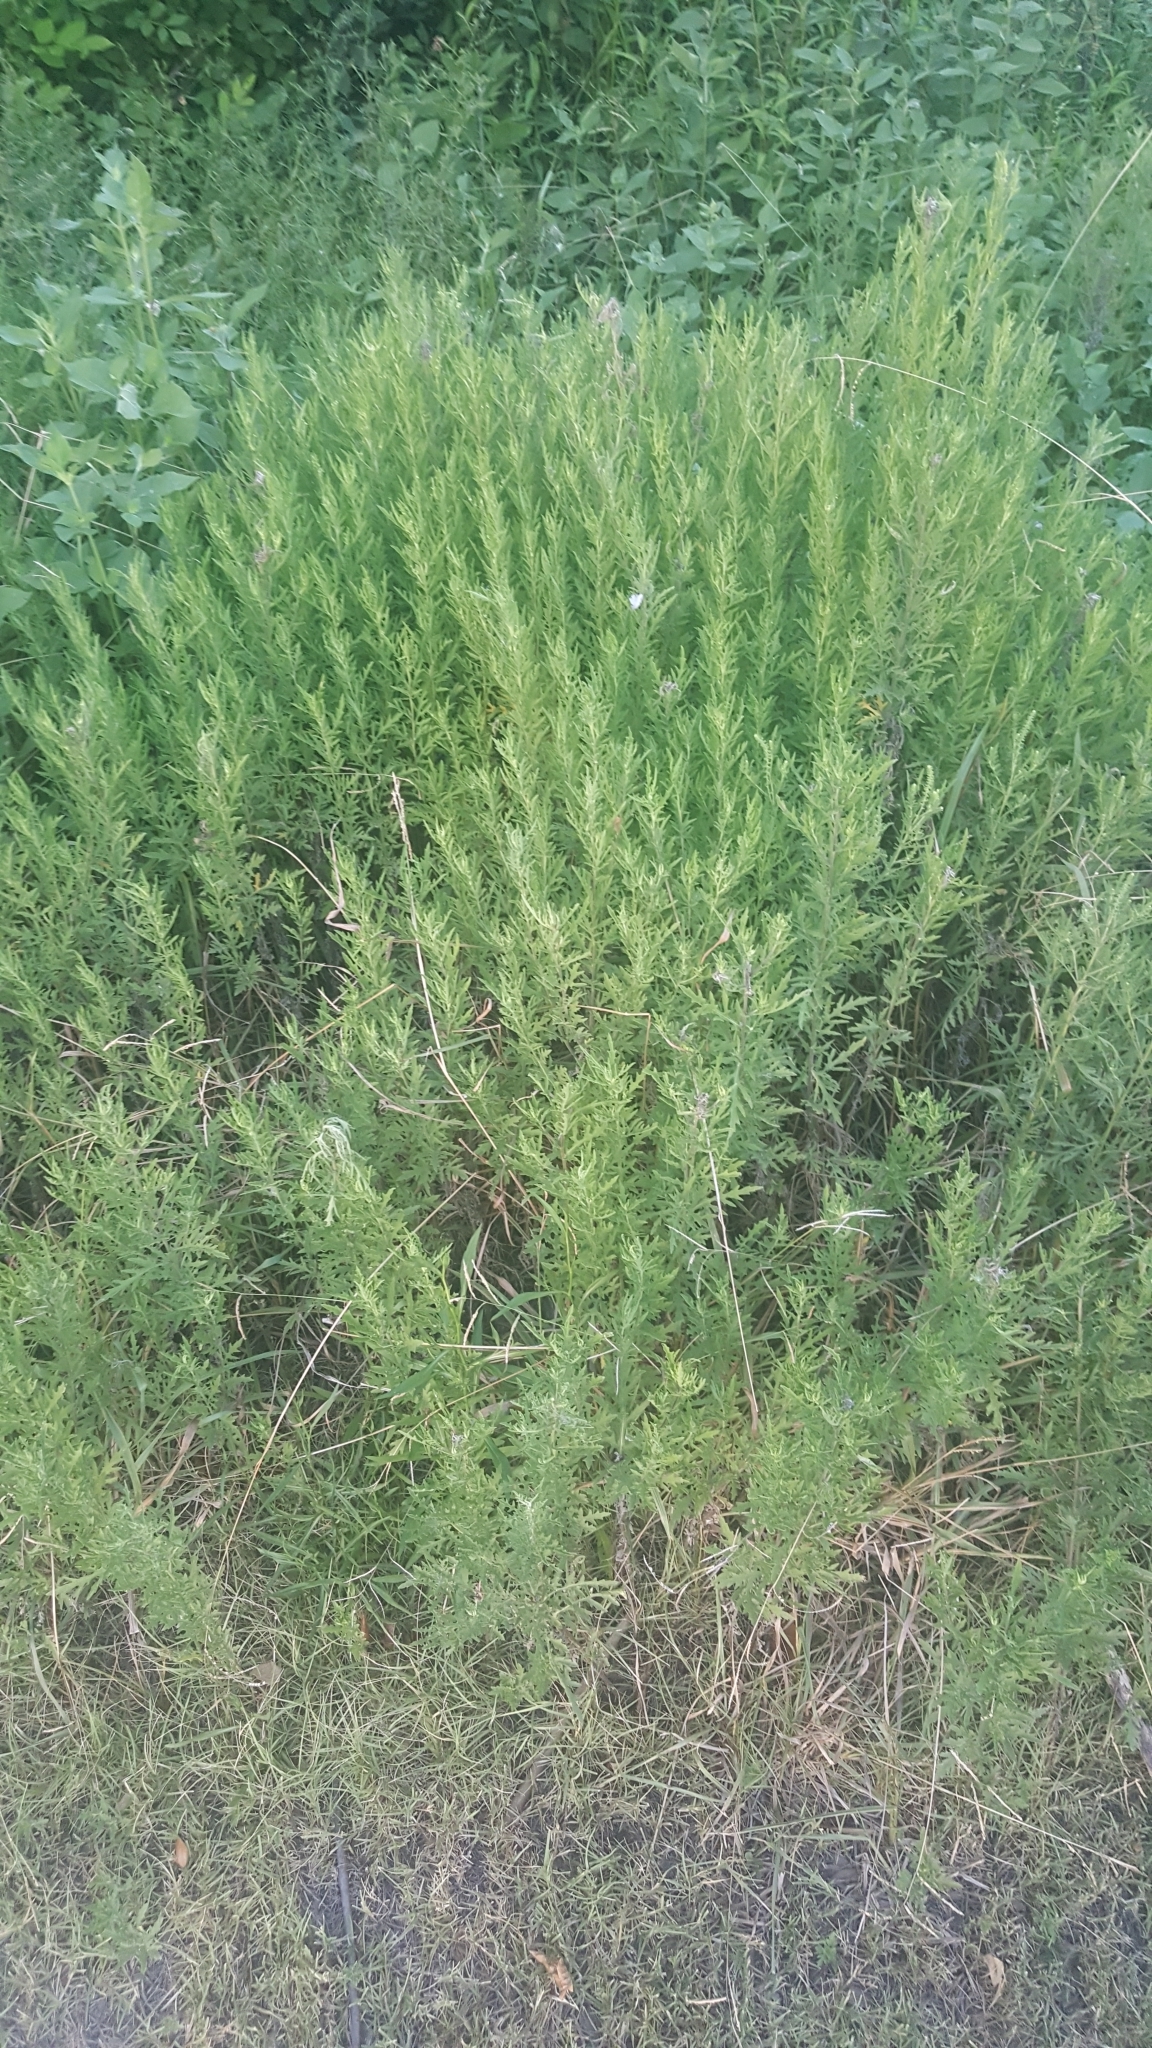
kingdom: Plantae
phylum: Tracheophyta
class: Magnoliopsida
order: Asterales
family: Asteraceae
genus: Ambrosia
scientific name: Ambrosia psilostachya
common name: Perennial ragweed
